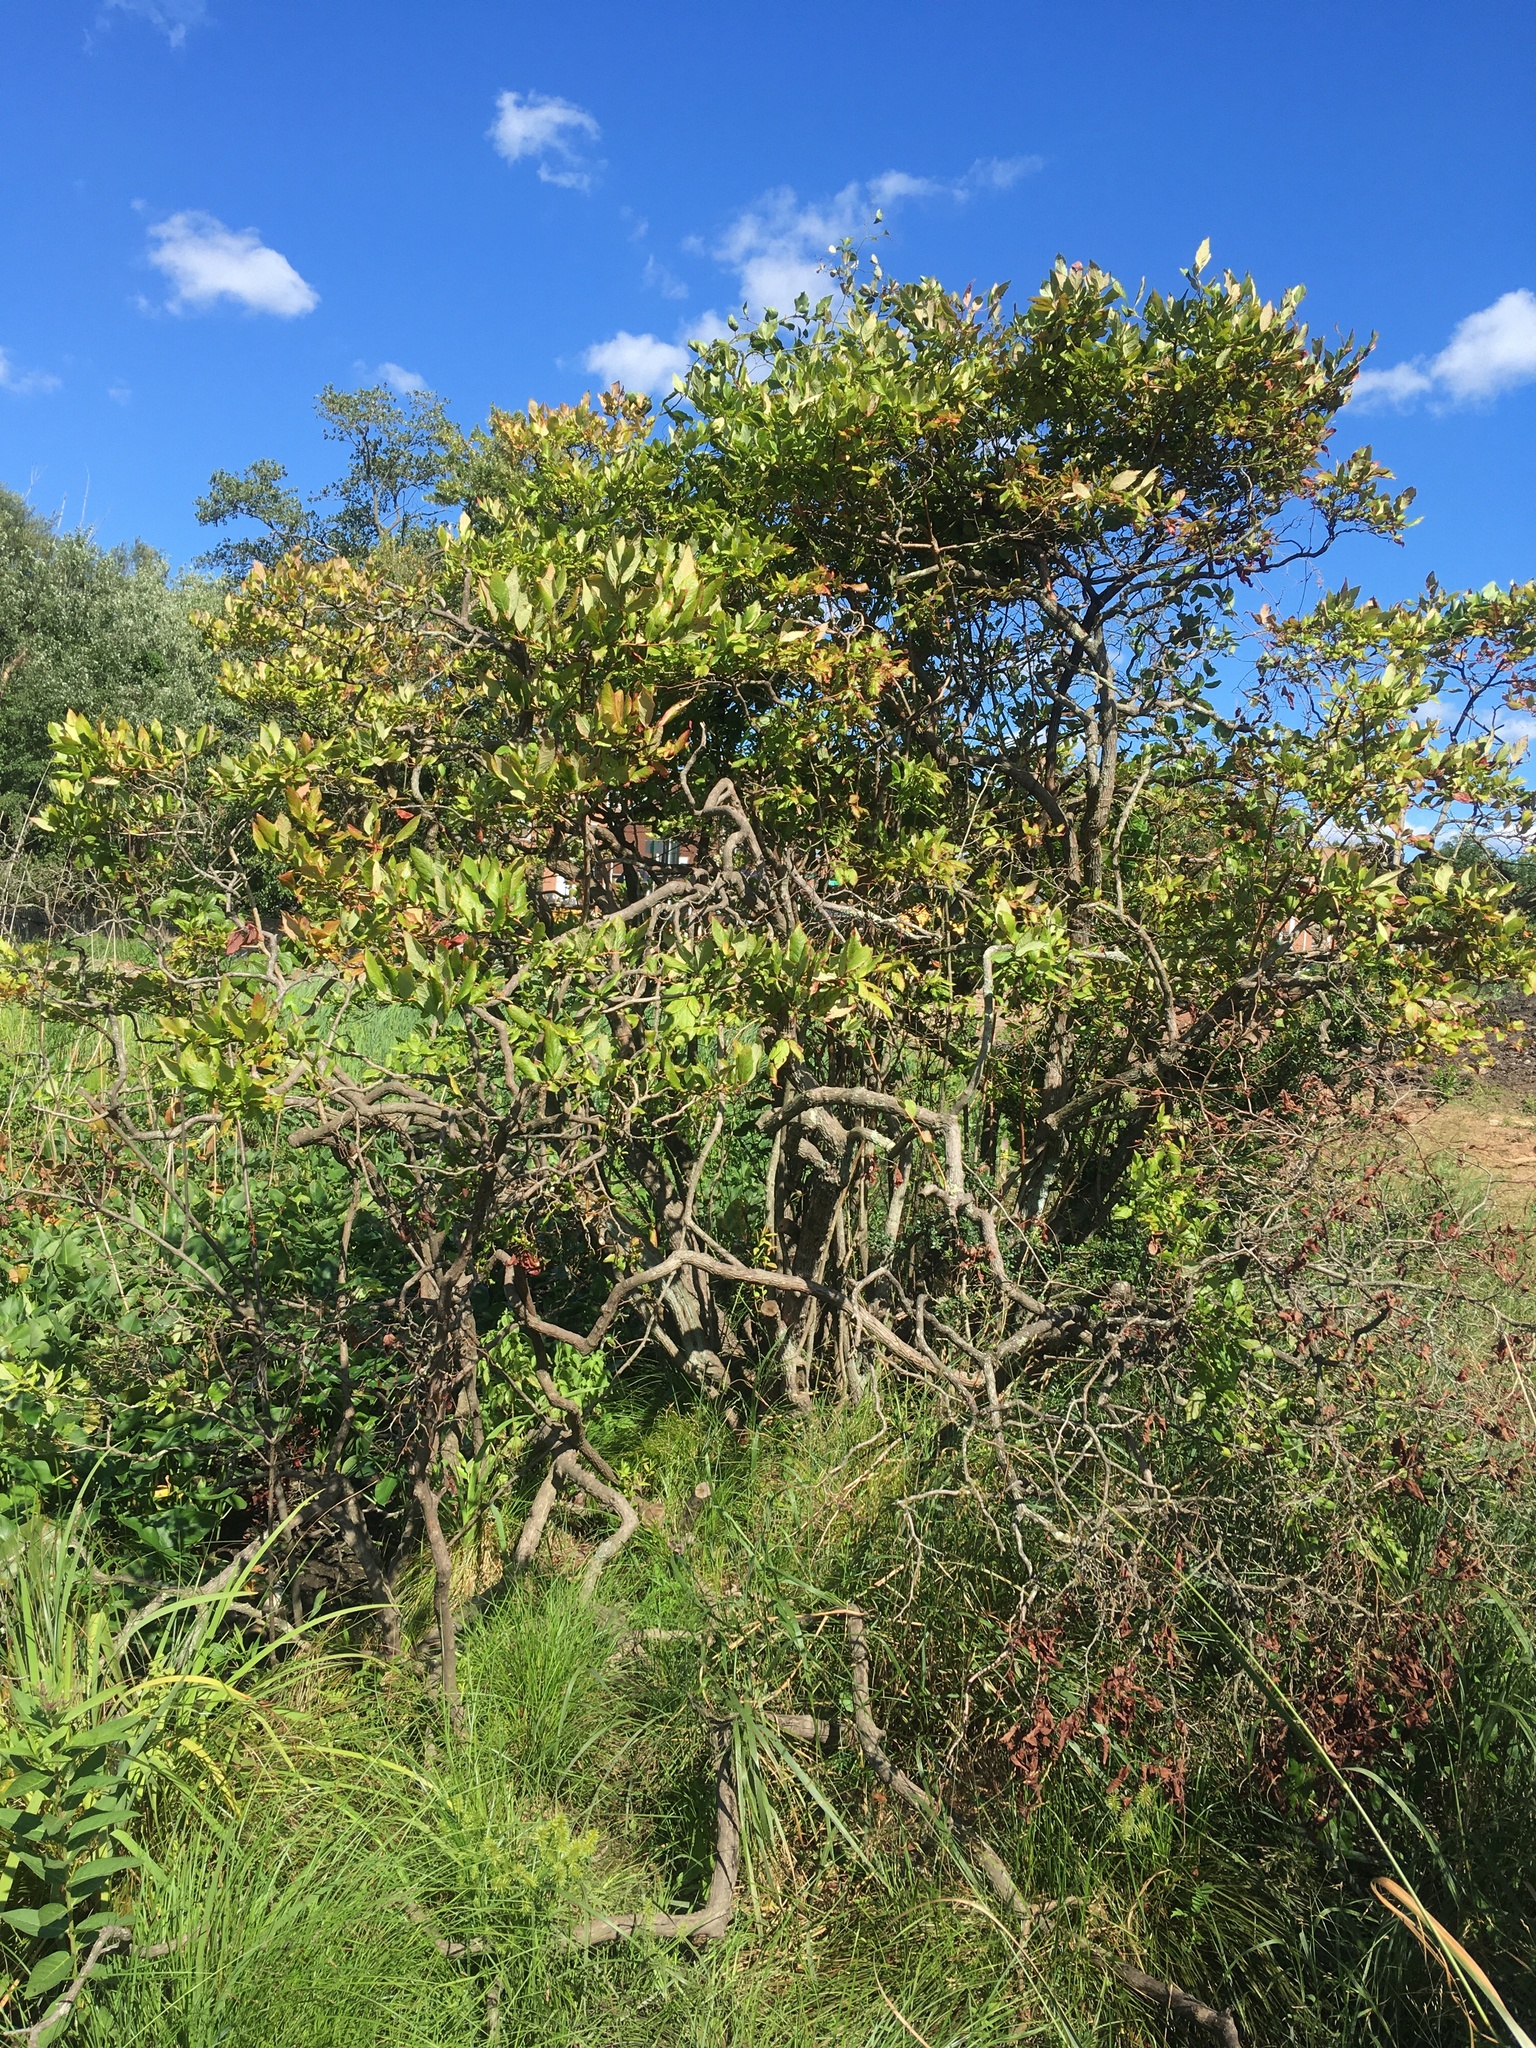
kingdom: Plantae
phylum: Tracheophyta
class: Magnoliopsida
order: Ericales
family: Ericaceae
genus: Vaccinium
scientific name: Vaccinium corymbosum
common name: Blueberry
